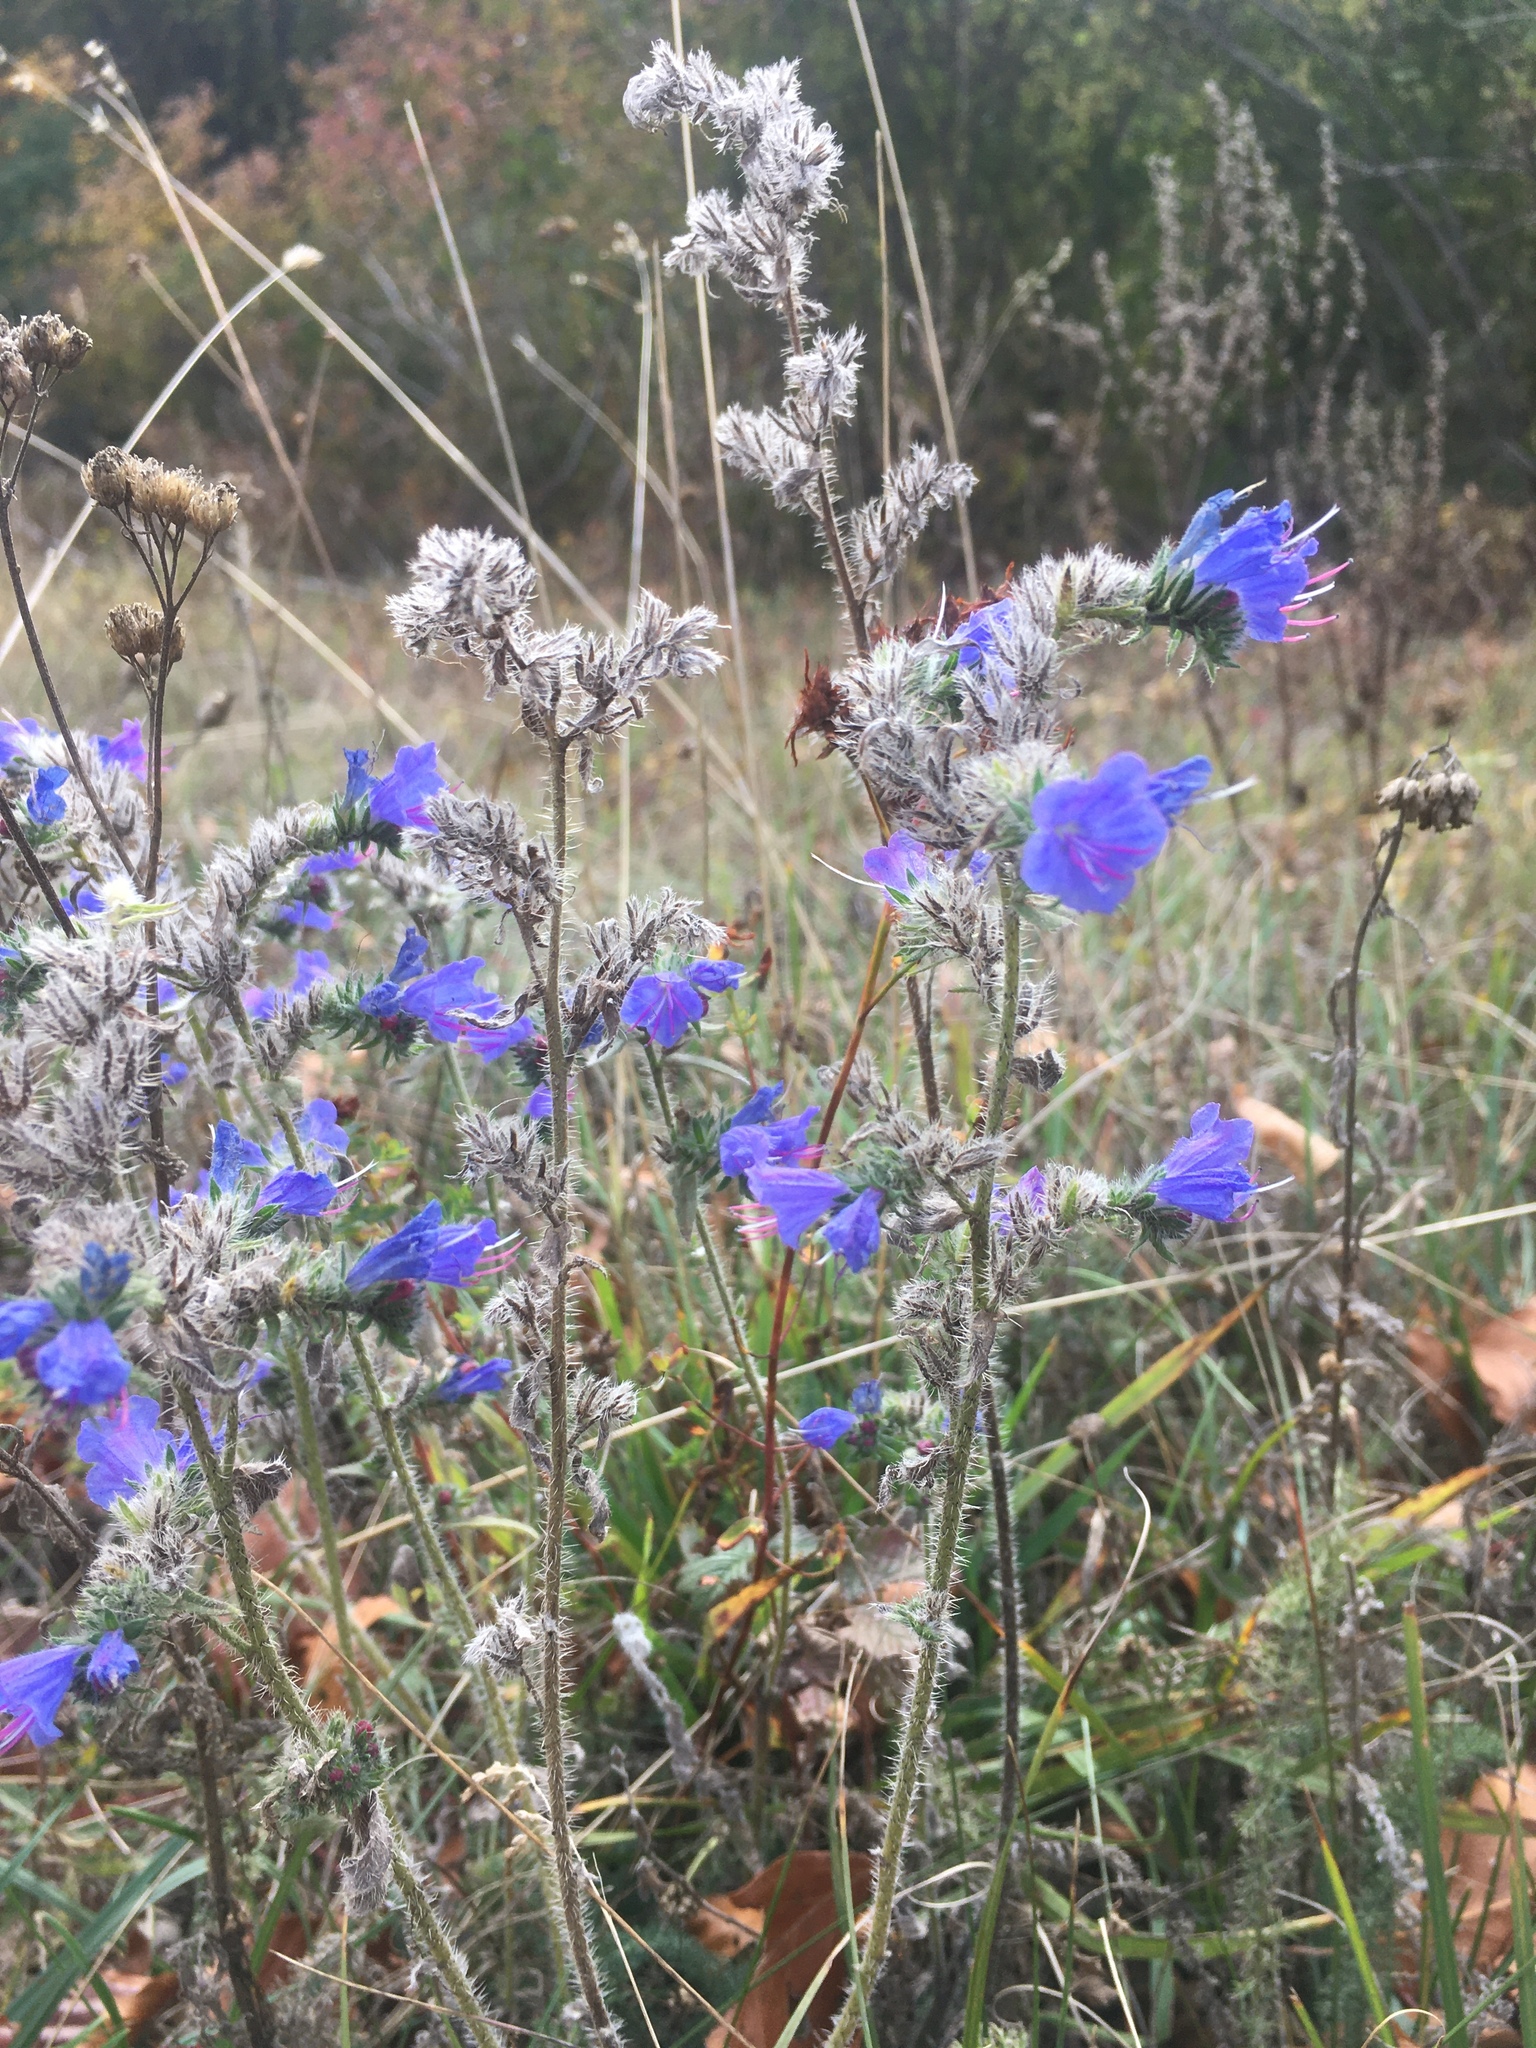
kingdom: Plantae
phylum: Tracheophyta
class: Magnoliopsida
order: Boraginales
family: Boraginaceae
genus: Echium
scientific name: Echium vulgare
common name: Common viper's bugloss
